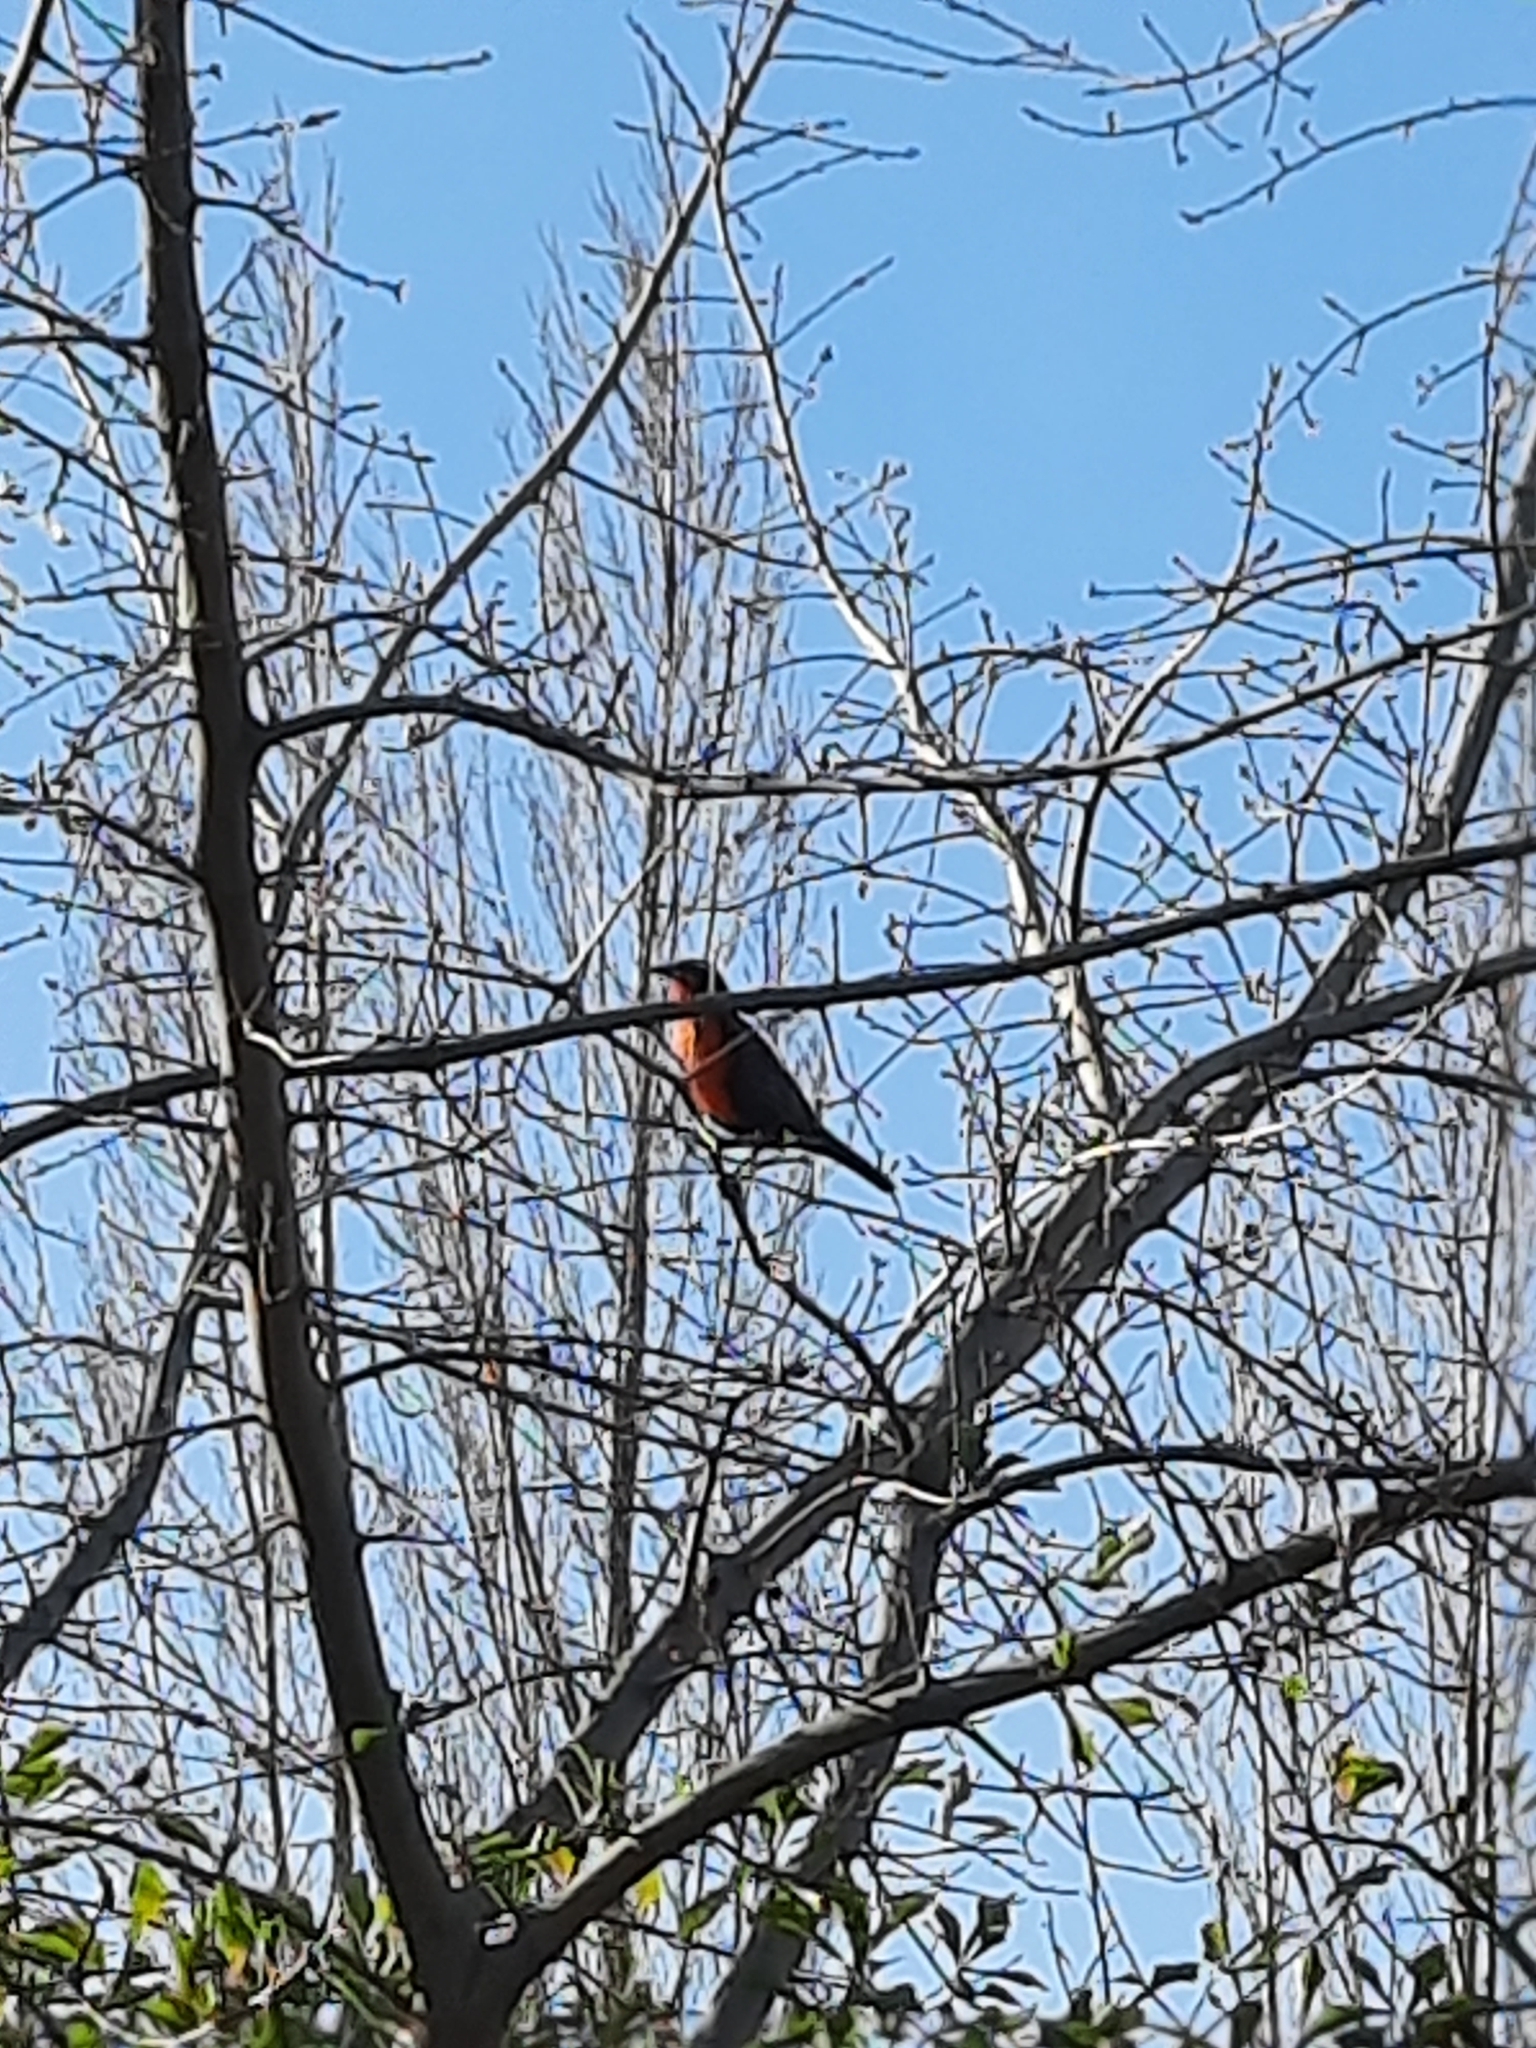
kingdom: Animalia
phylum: Chordata
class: Aves
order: Passeriformes
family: Icteridae
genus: Sturnella
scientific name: Sturnella loyca
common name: Long-tailed meadowlark
